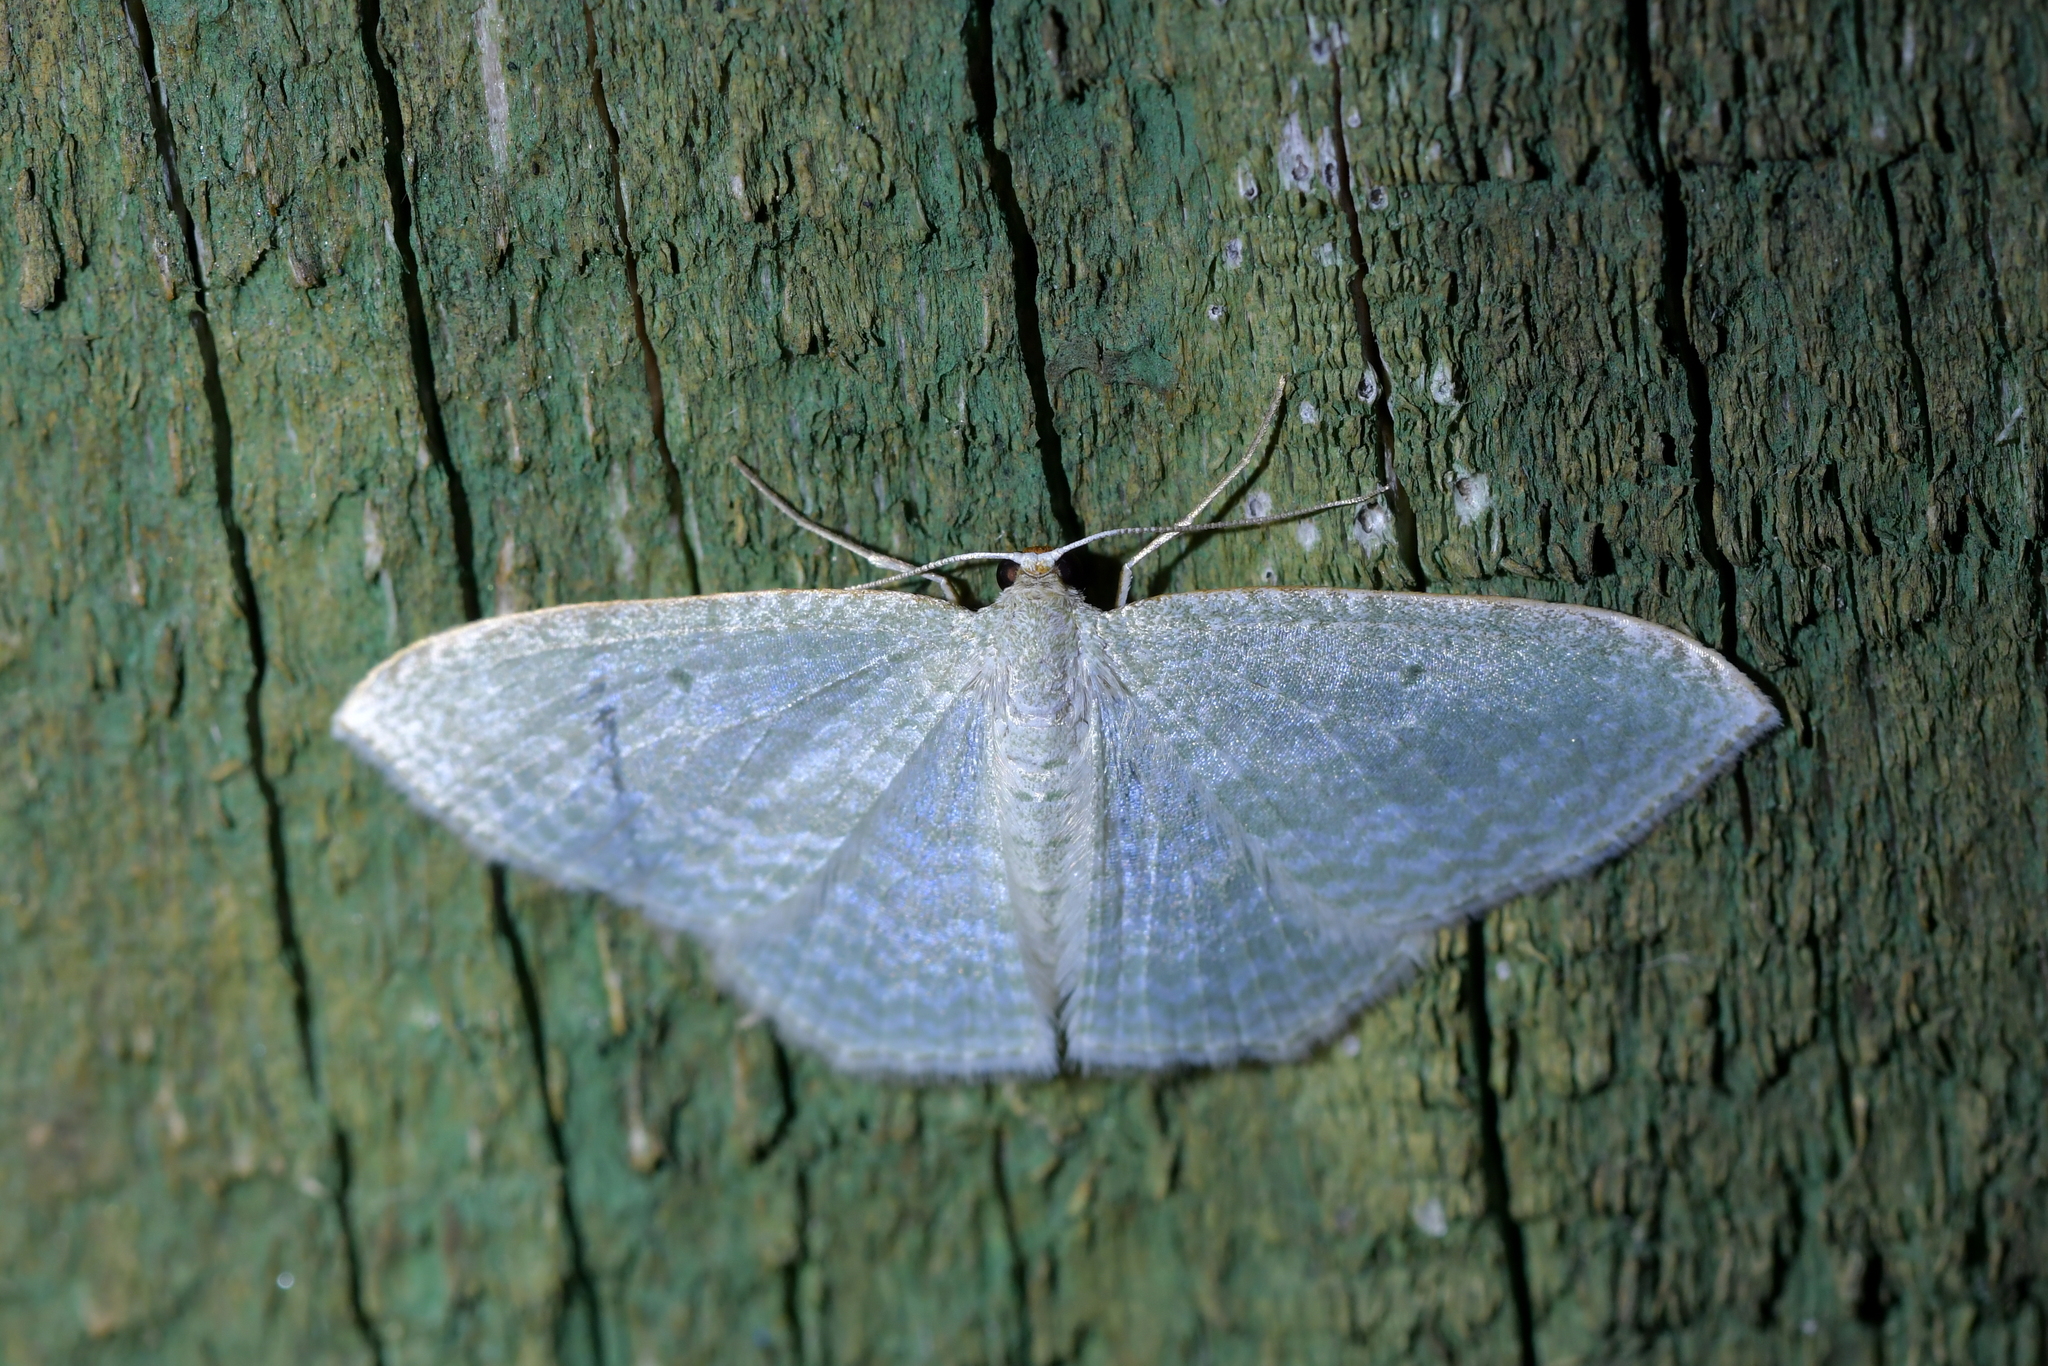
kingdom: Animalia
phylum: Arthropoda
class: Insecta
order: Lepidoptera
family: Geometridae
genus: Poecilasthena
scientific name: Poecilasthena pulchraria
